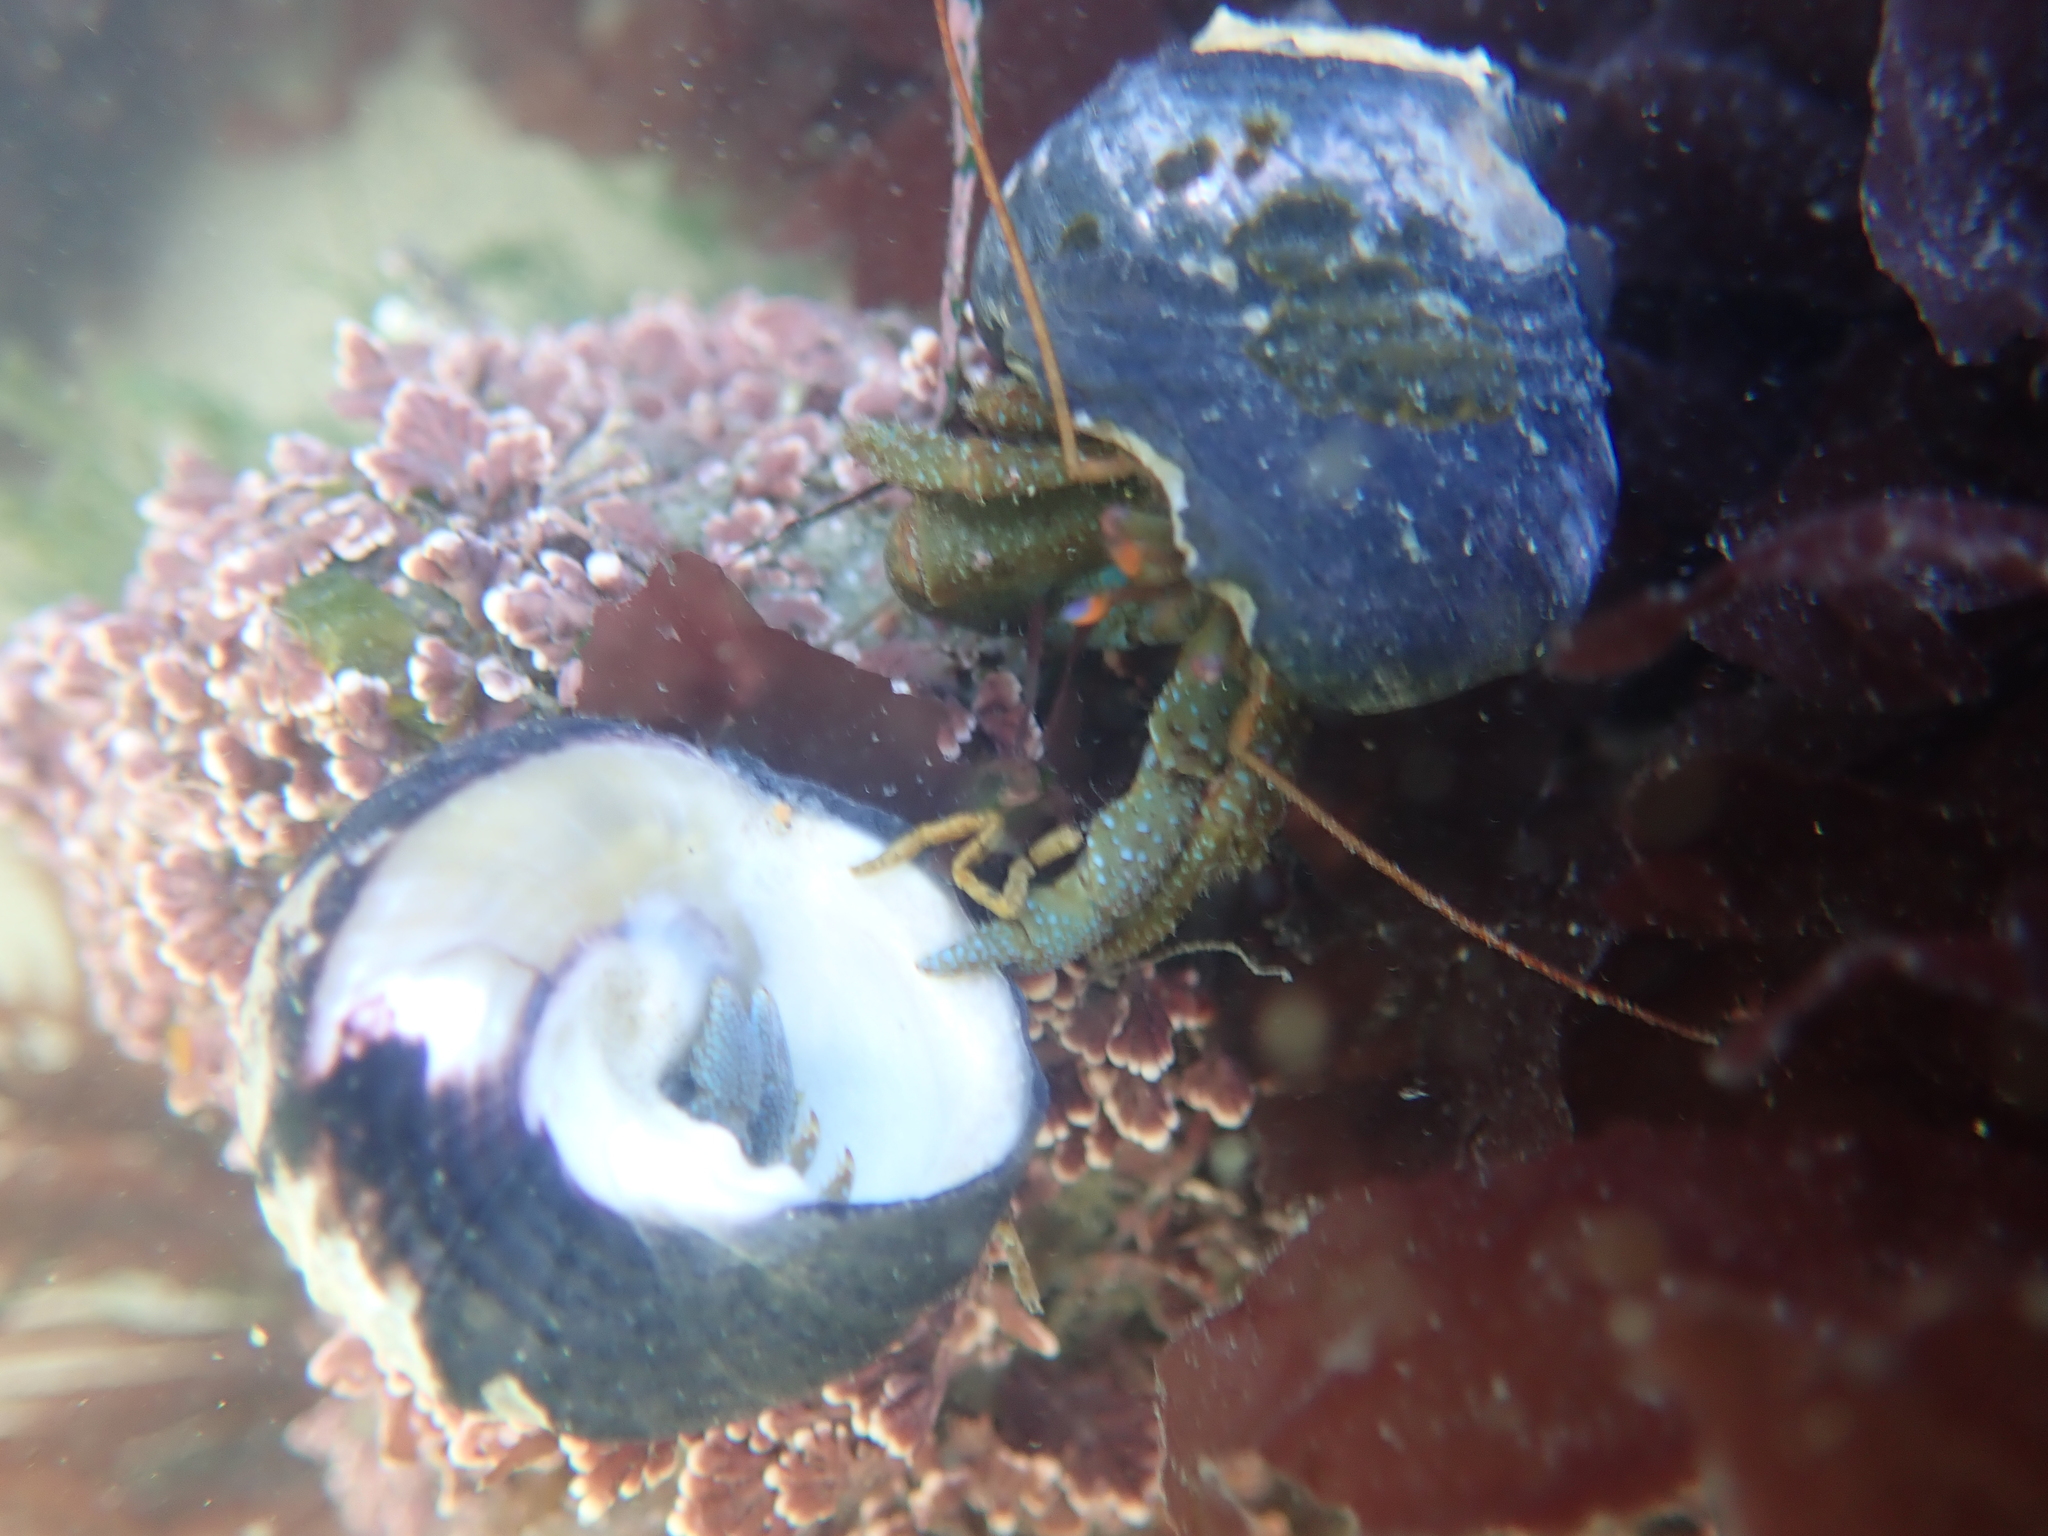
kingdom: Animalia
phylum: Arthropoda
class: Malacostraca
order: Decapoda
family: Paguridae
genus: Pagurus
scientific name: Pagurus granosimanus
